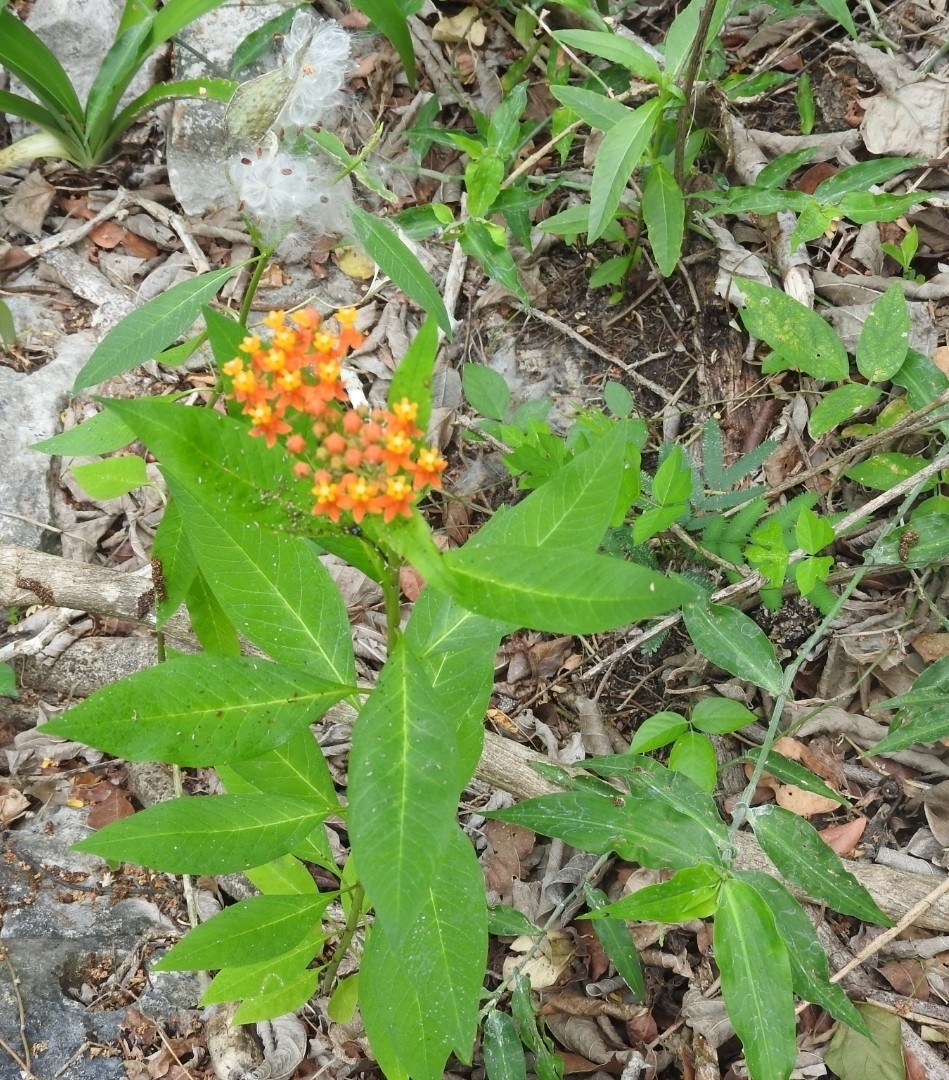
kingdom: Plantae
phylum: Tracheophyta
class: Magnoliopsida
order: Gentianales
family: Apocynaceae
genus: Asclepias
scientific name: Asclepias curassavica
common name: Bloodflower
